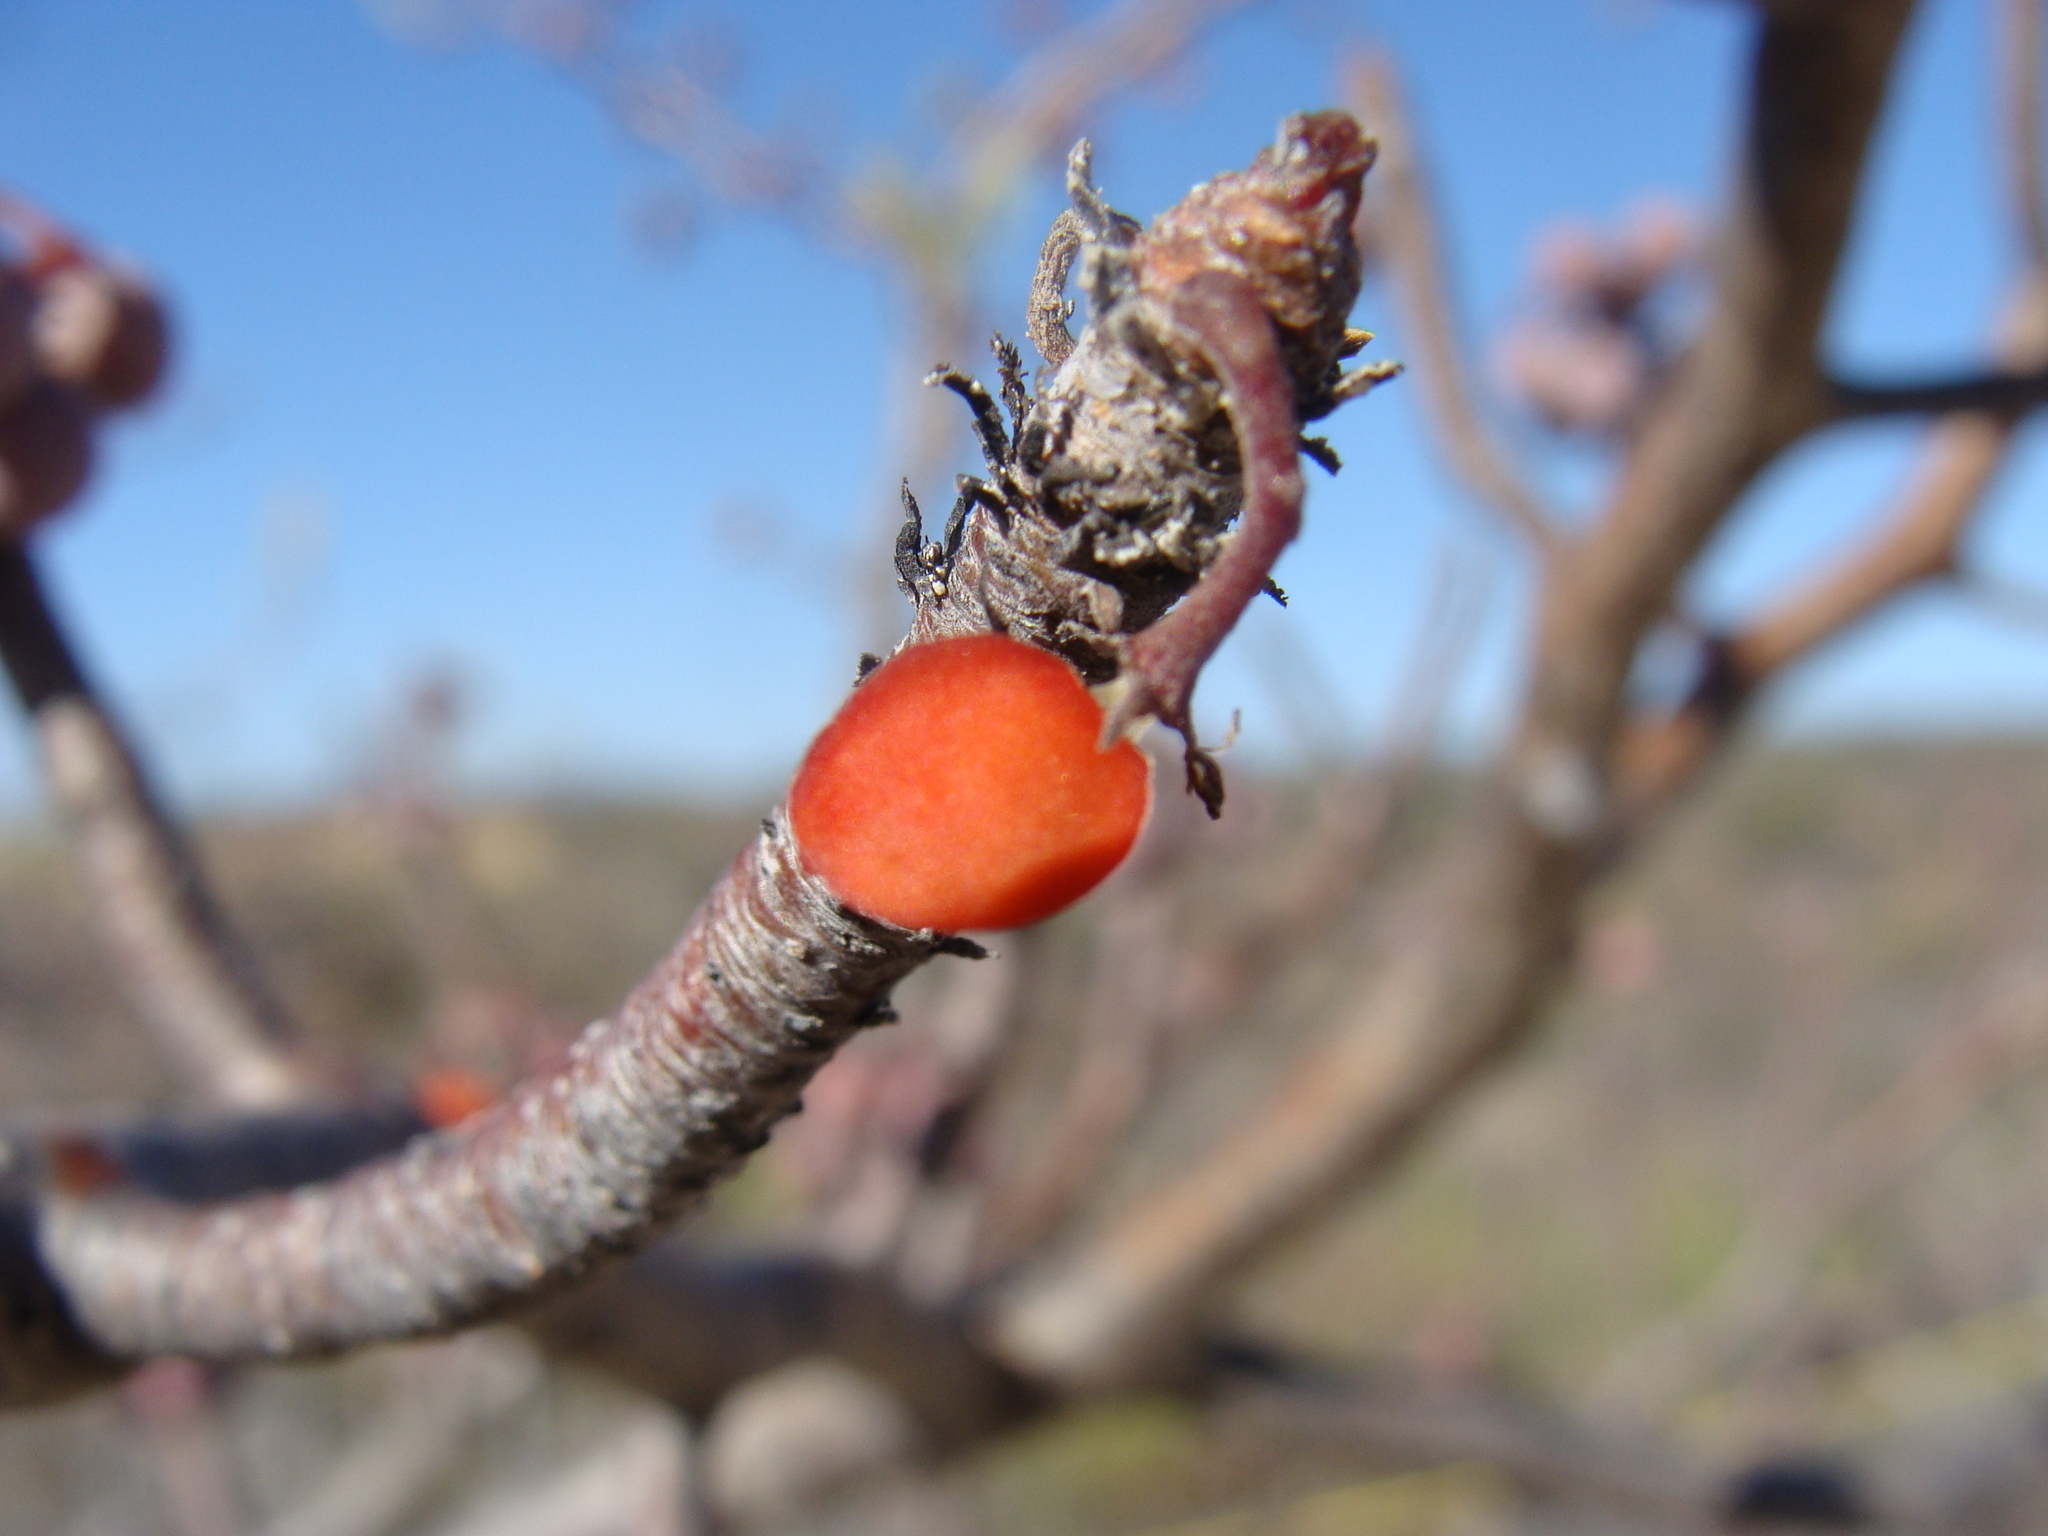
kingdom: Plantae
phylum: Tracheophyta
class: Magnoliopsida
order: Sapindales
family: Burseraceae
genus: Bursera
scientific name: Bursera microphylla
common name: Elephant tree
